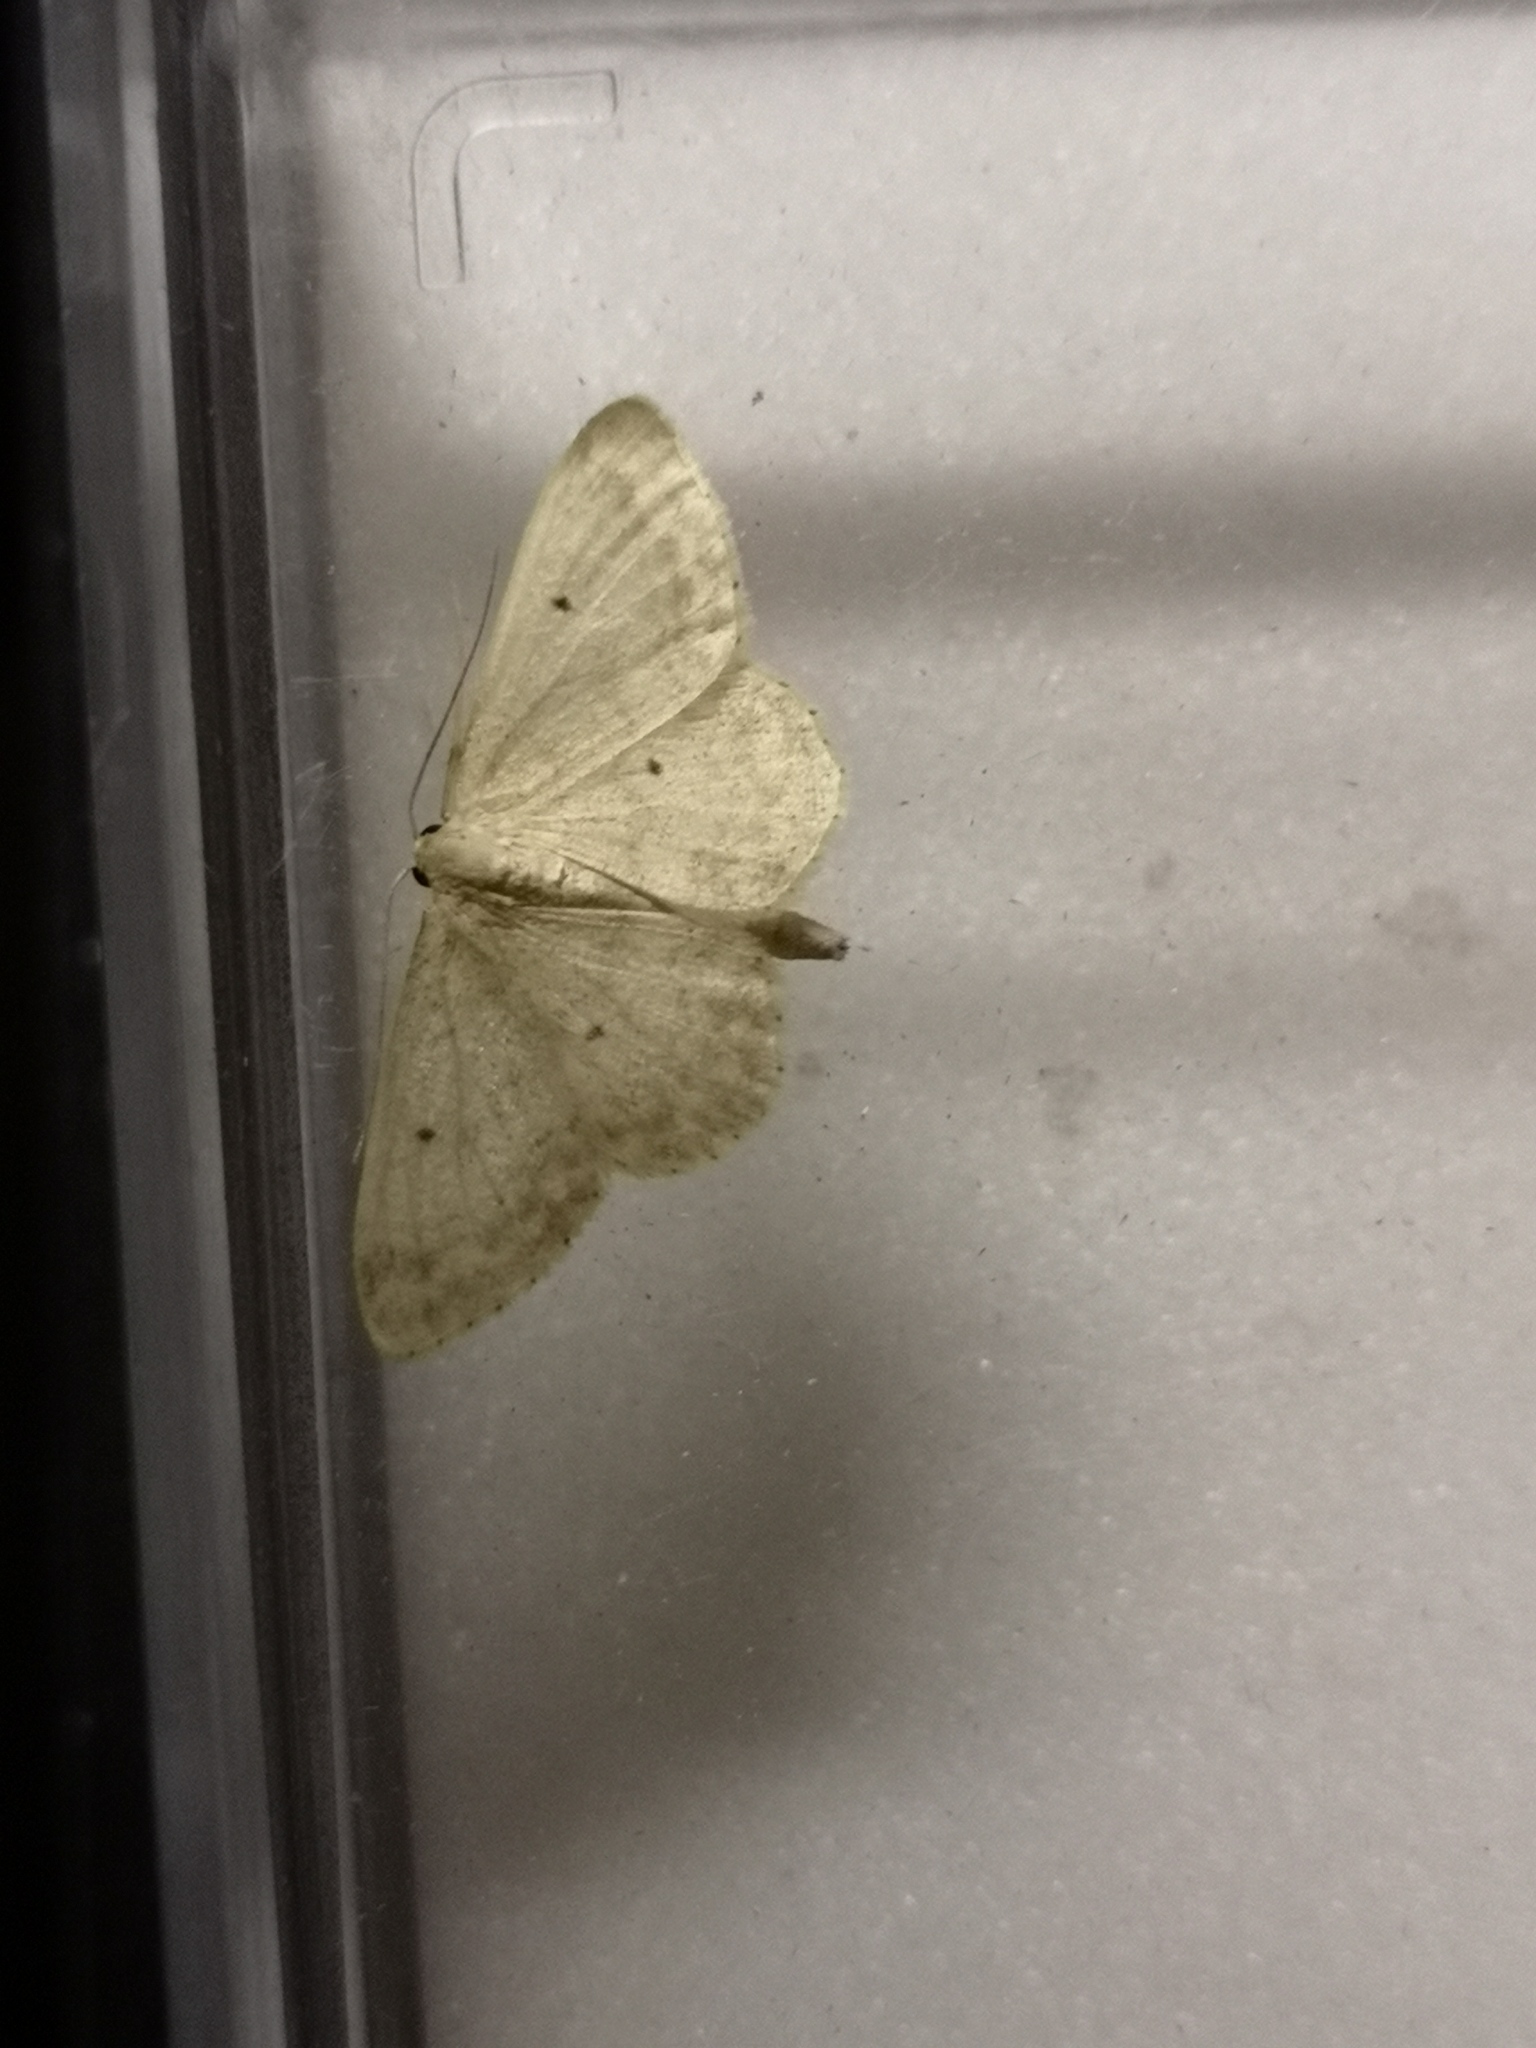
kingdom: Animalia
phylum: Arthropoda
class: Insecta
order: Lepidoptera
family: Geometridae
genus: Idaea
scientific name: Idaea biselata
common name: Small fan-footed wave
